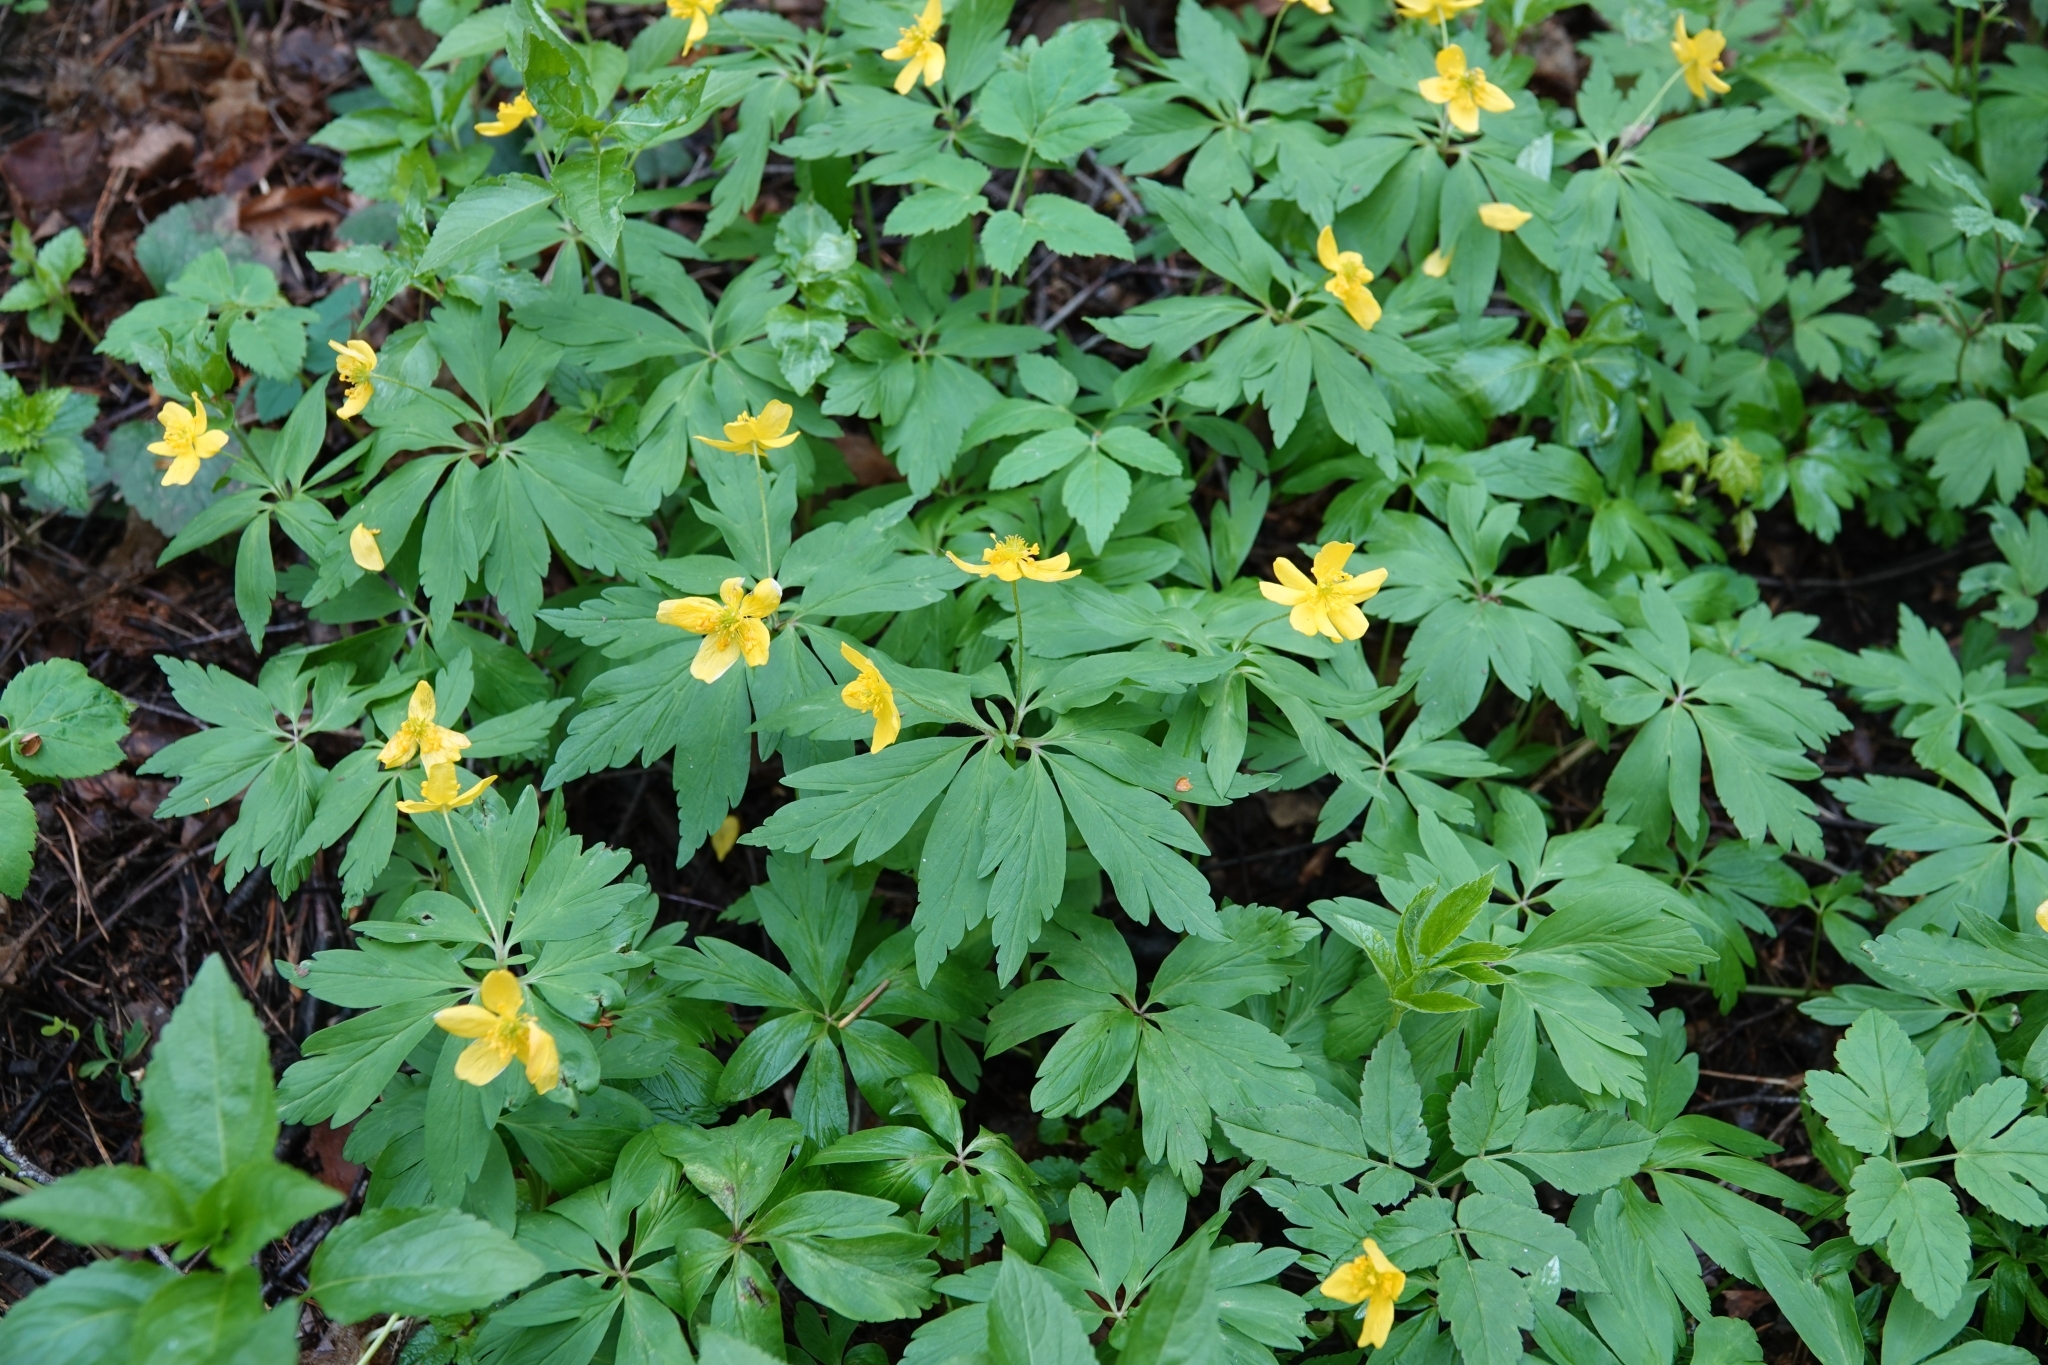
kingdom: Plantae
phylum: Tracheophyta
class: Magnoliopsida
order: Ranunculales
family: Ranunculaceae
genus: Anemone
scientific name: Anemone ranunculoides
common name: Yellow anemone
